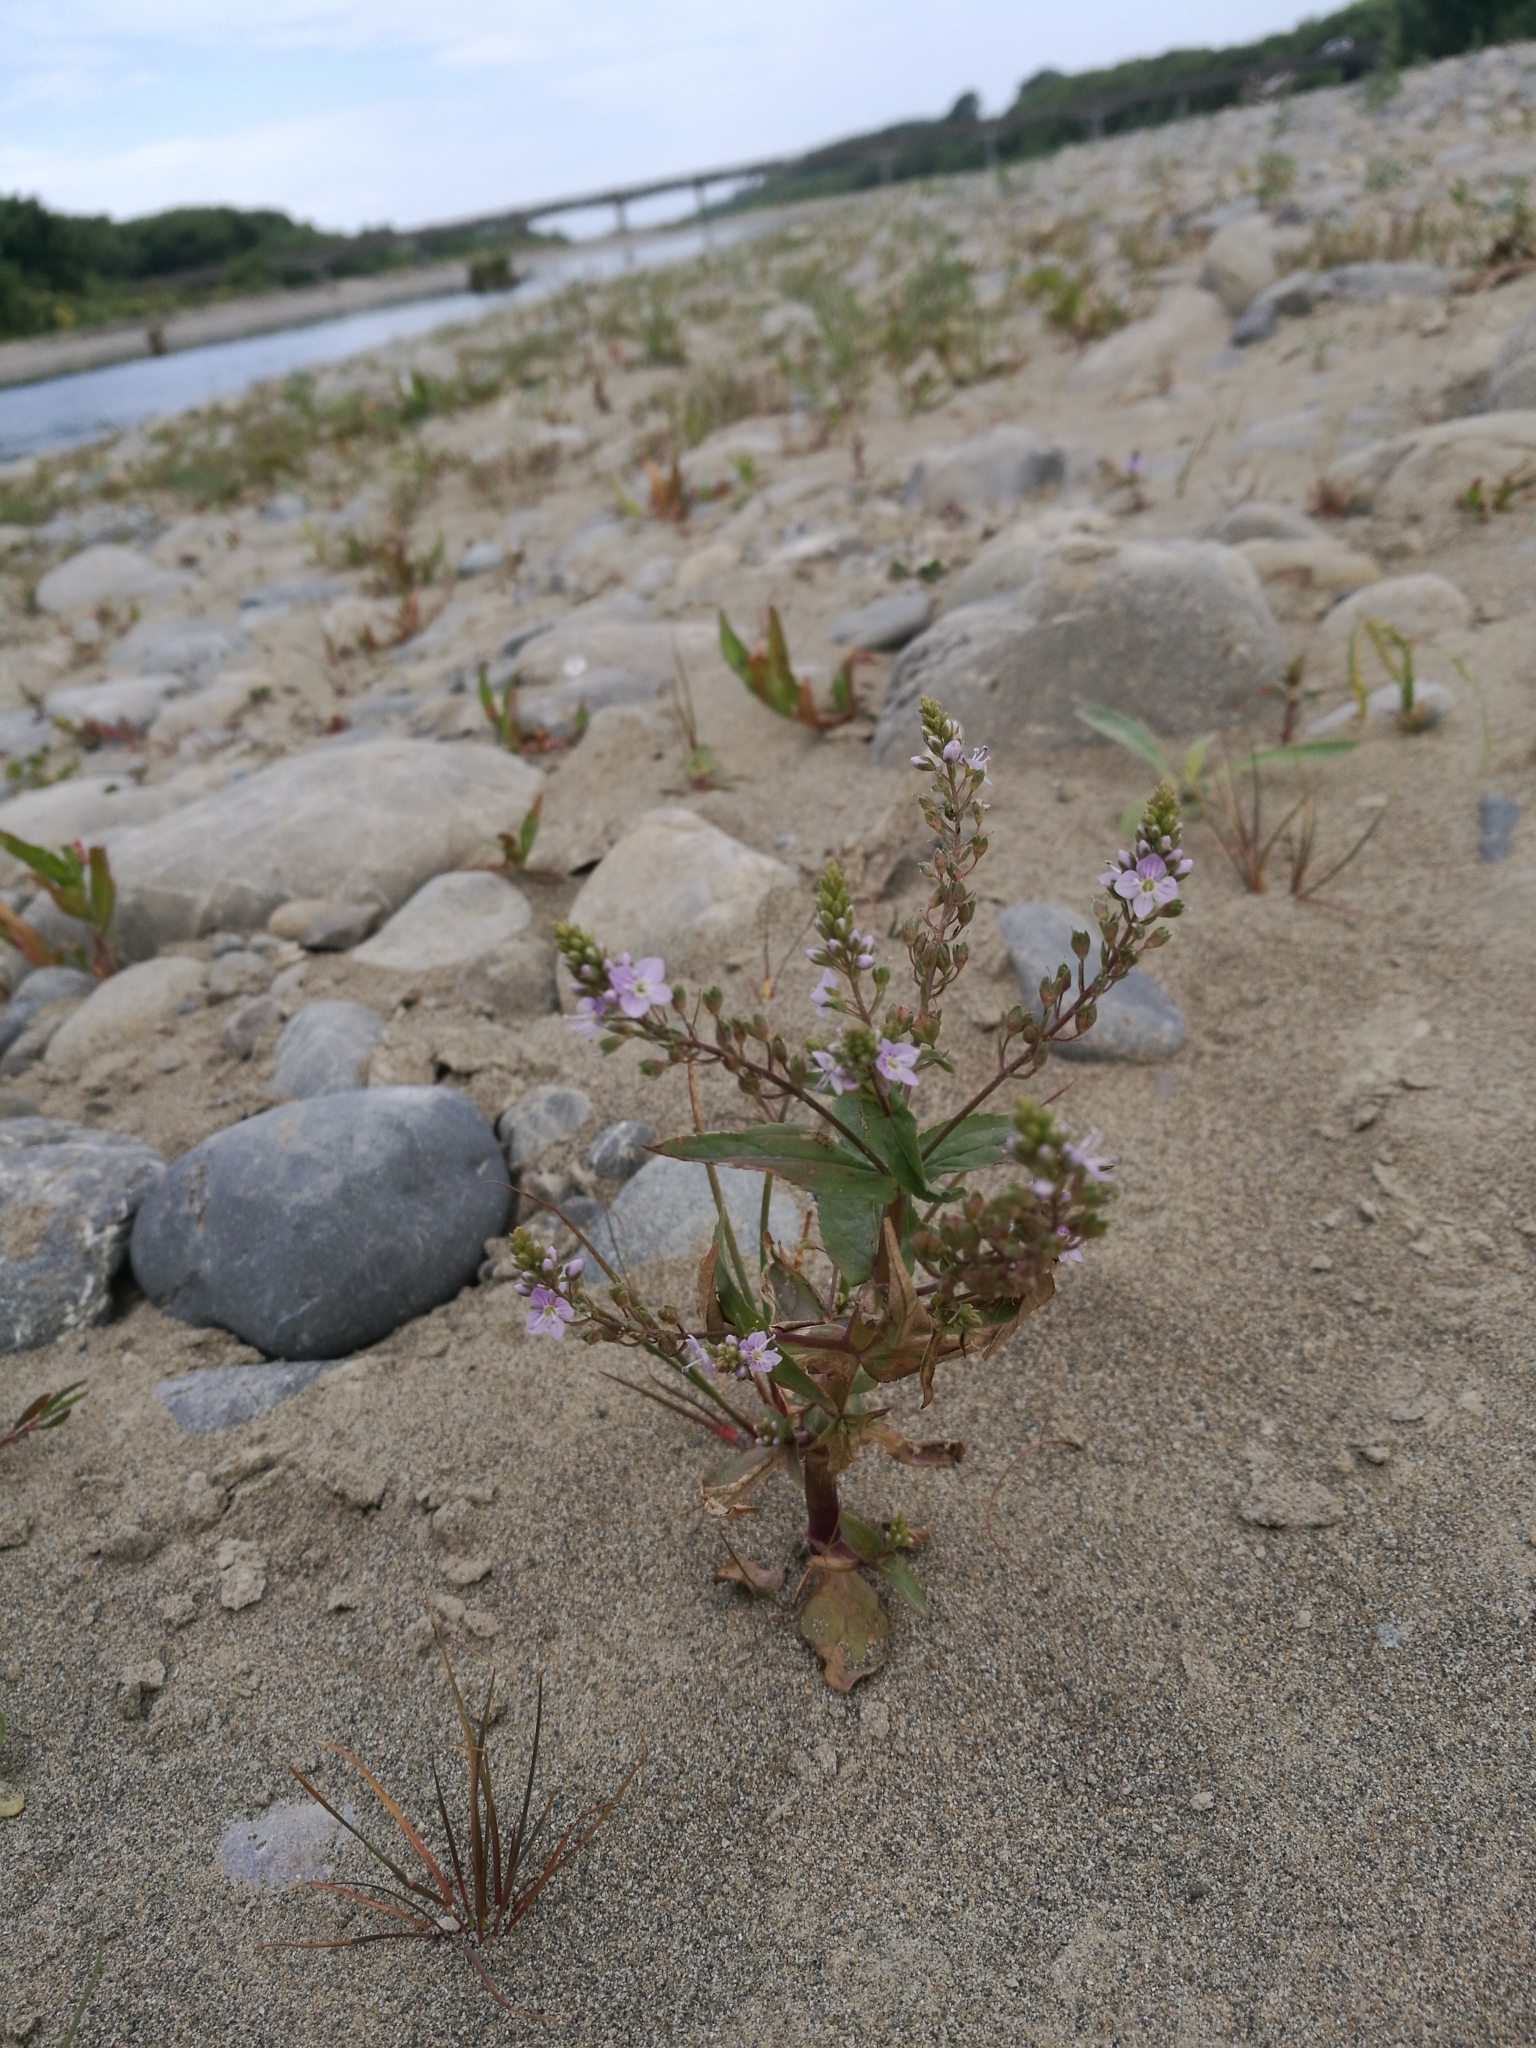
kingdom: Plantae
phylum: Tracheophyta
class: Magnoliopsida
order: Lamiales
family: Plantaginaceae
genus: Veronica
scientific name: Veronica anagallis-aquatica
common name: Water speedwell
